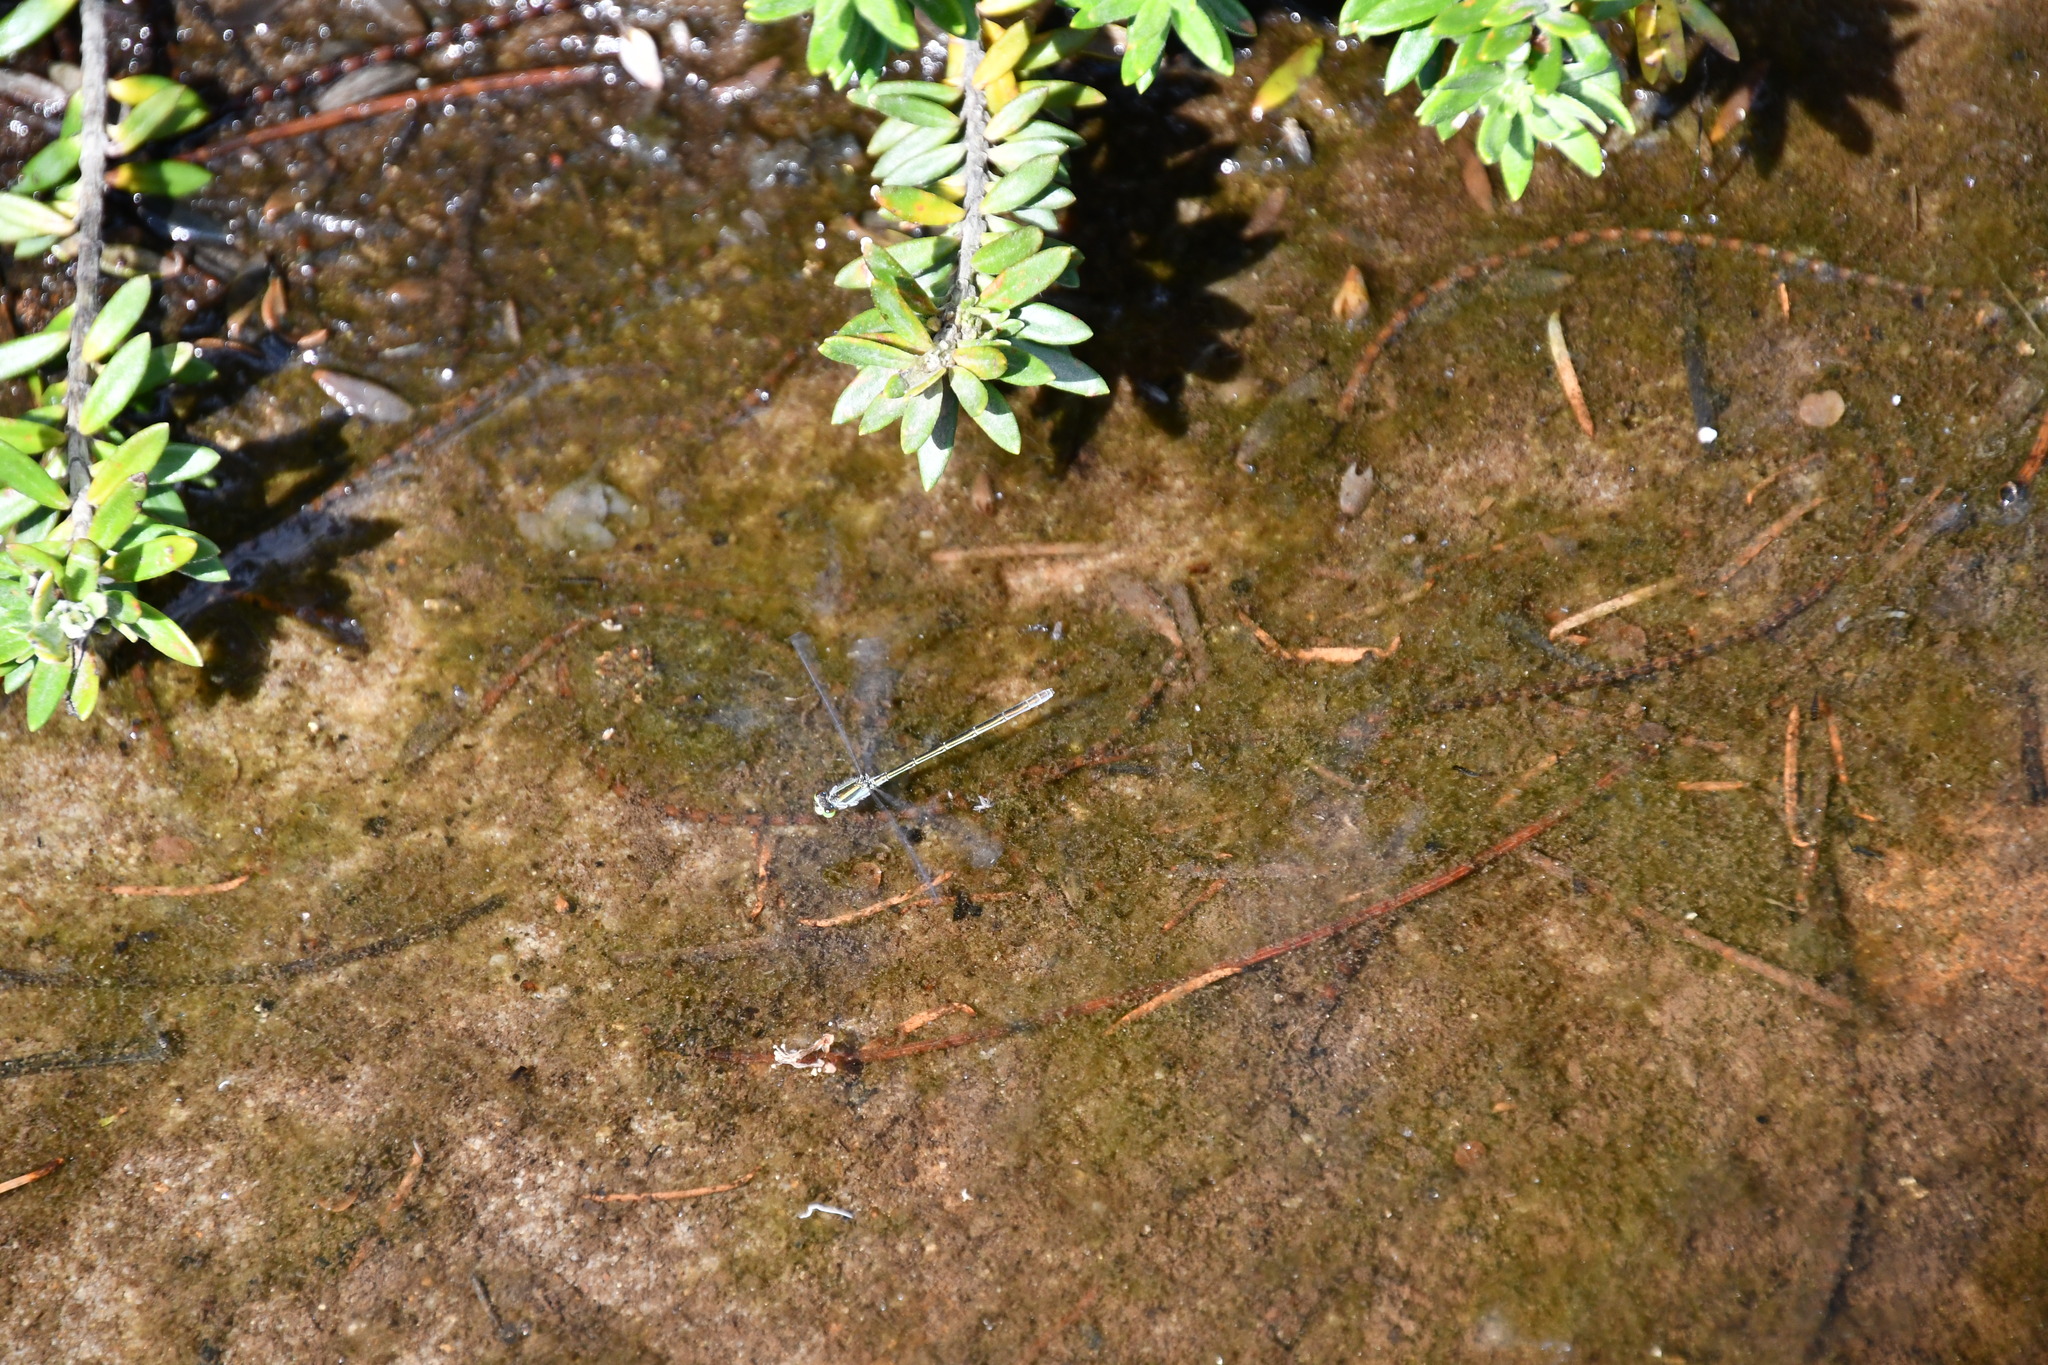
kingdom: Animalia
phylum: Arthropoda
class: Insecta
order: Odonata
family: Coenagrionidae
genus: Ischnura
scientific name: Ischnura aurora
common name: Gossamer damselfly
